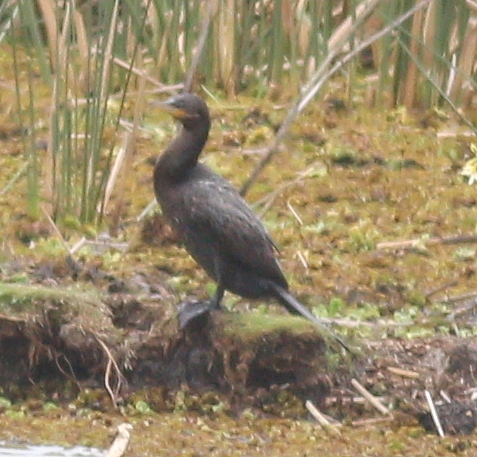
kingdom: Animalia
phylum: Chordata
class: Aves
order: Suliformes
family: Phalacrocoracidae
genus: Phalacrocorax
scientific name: Phalacrocorax brasilianus
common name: Neotropic cormorant
